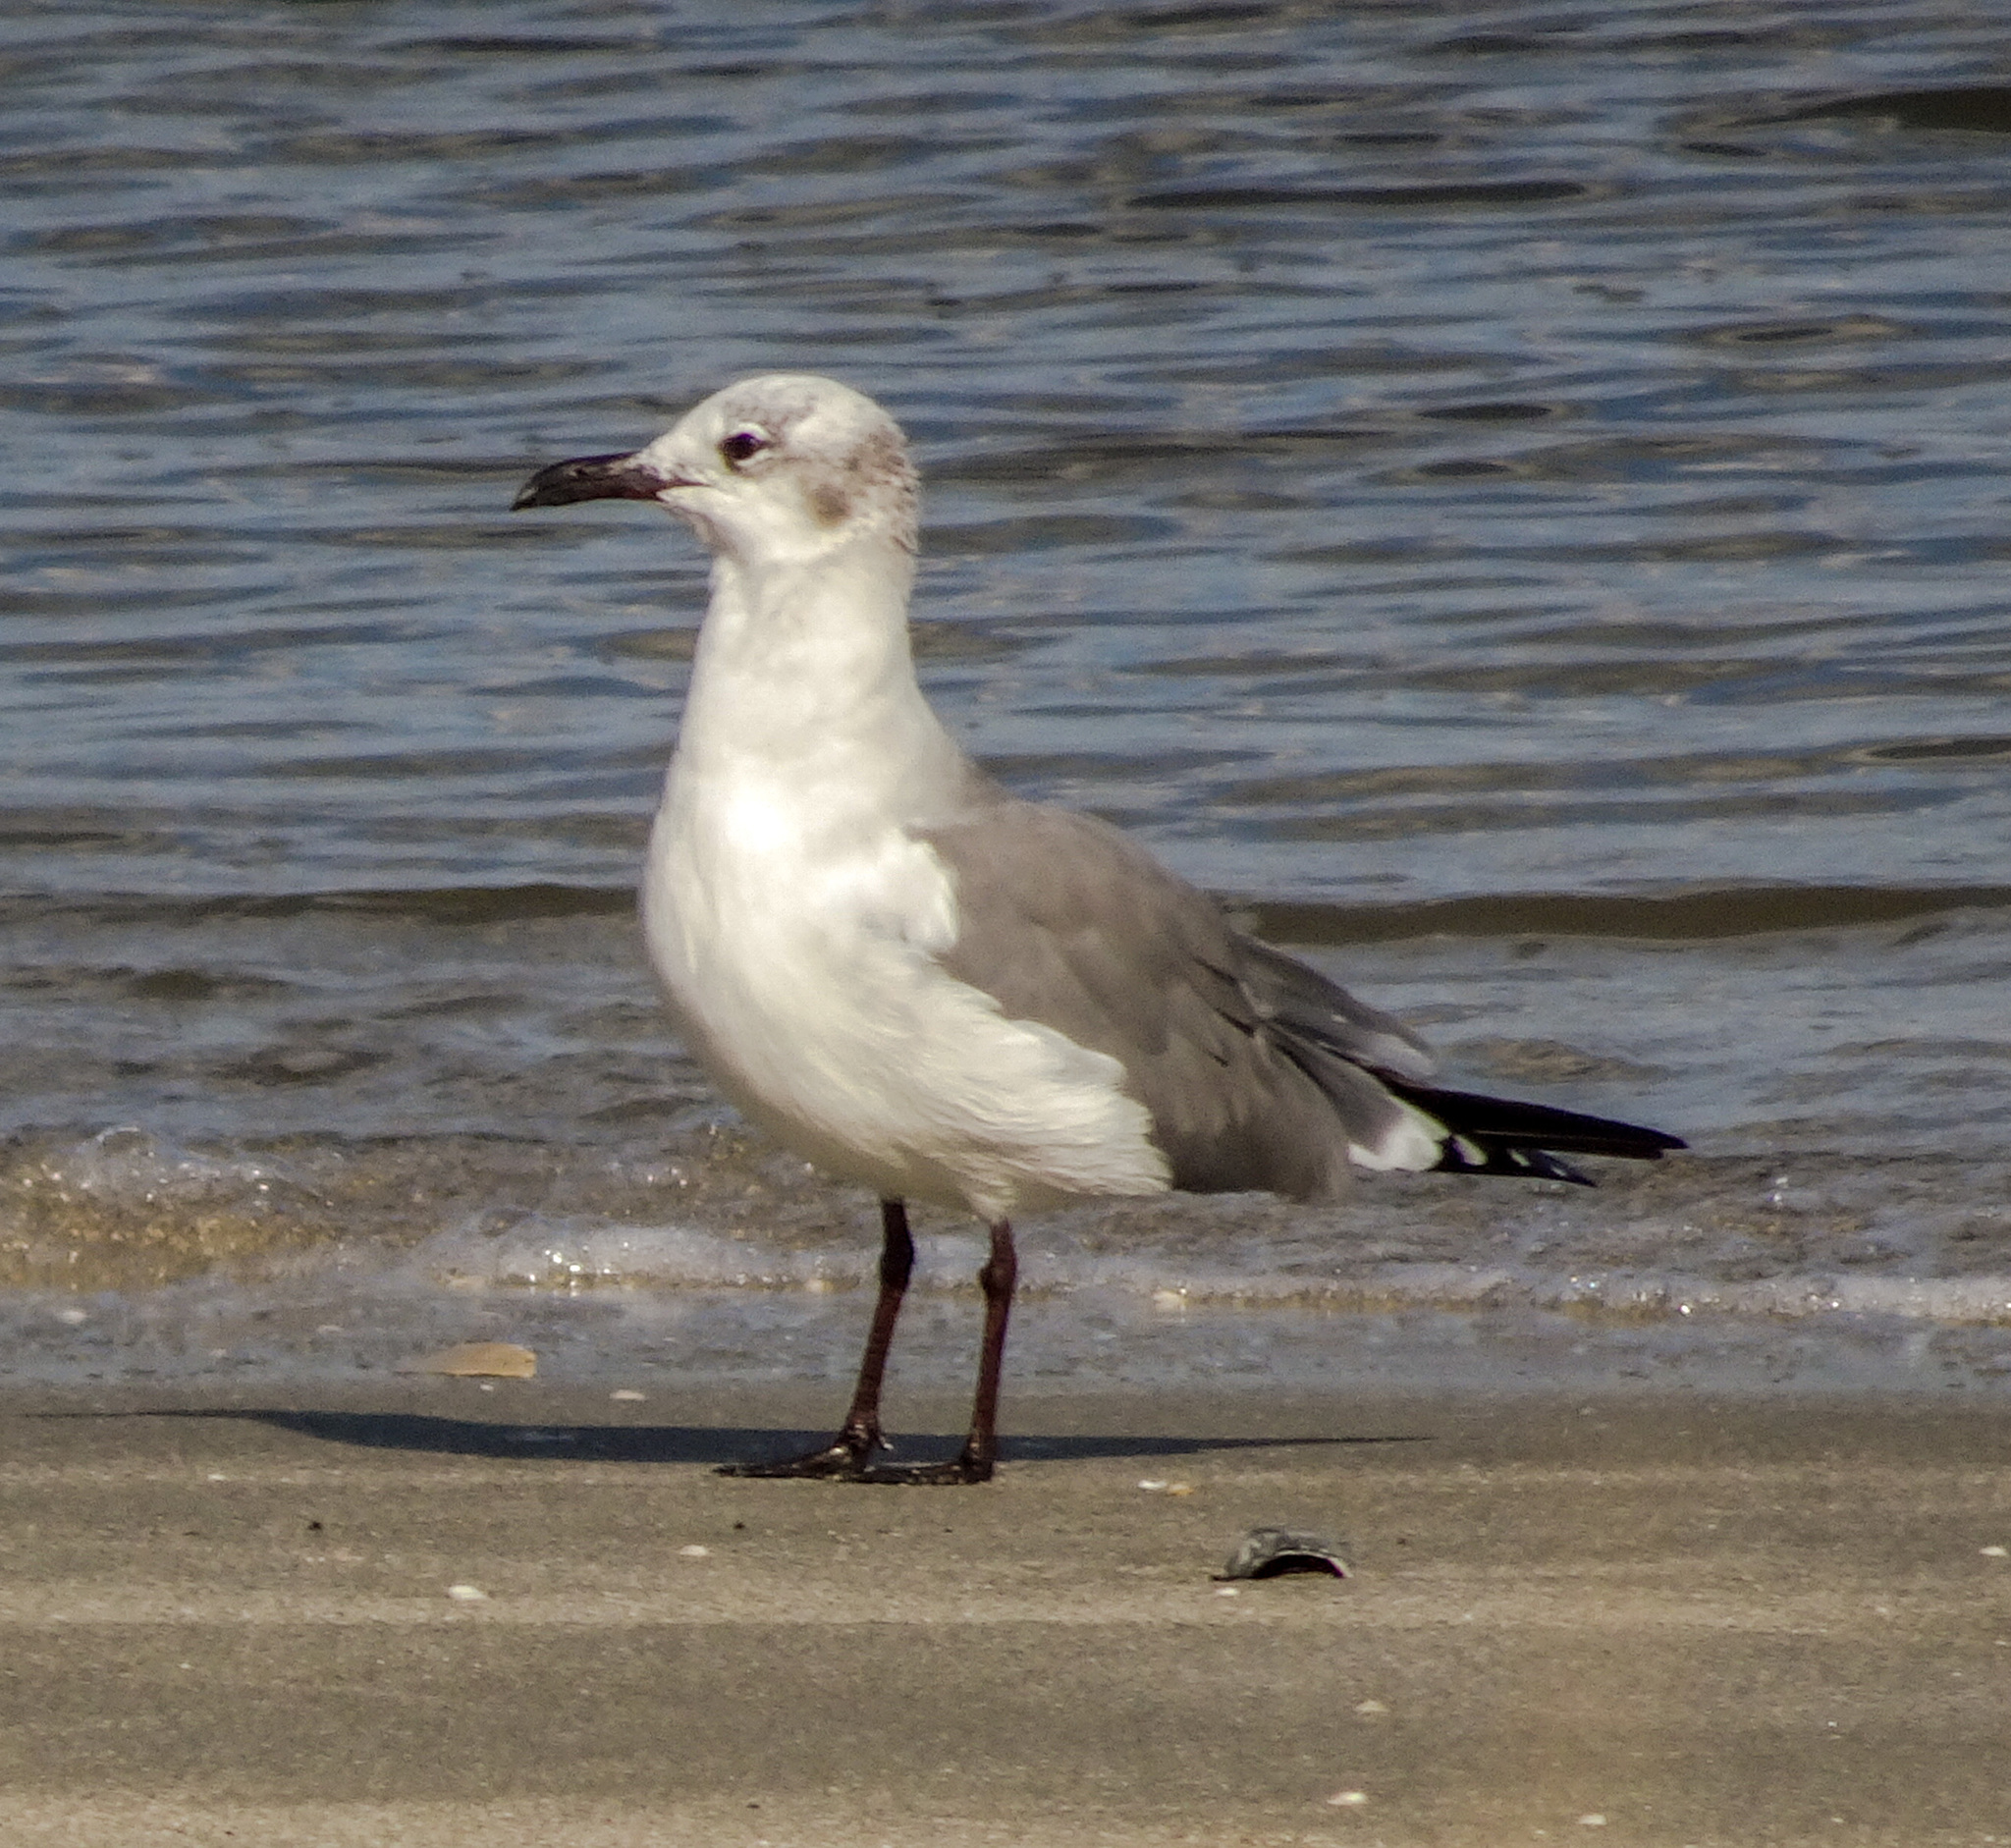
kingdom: Animalia
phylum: Chordata
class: Aves
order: Charadriiformes
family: Laridae
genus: Leucophaeus
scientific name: Leucophaeus atricilla
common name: Laughing gull
